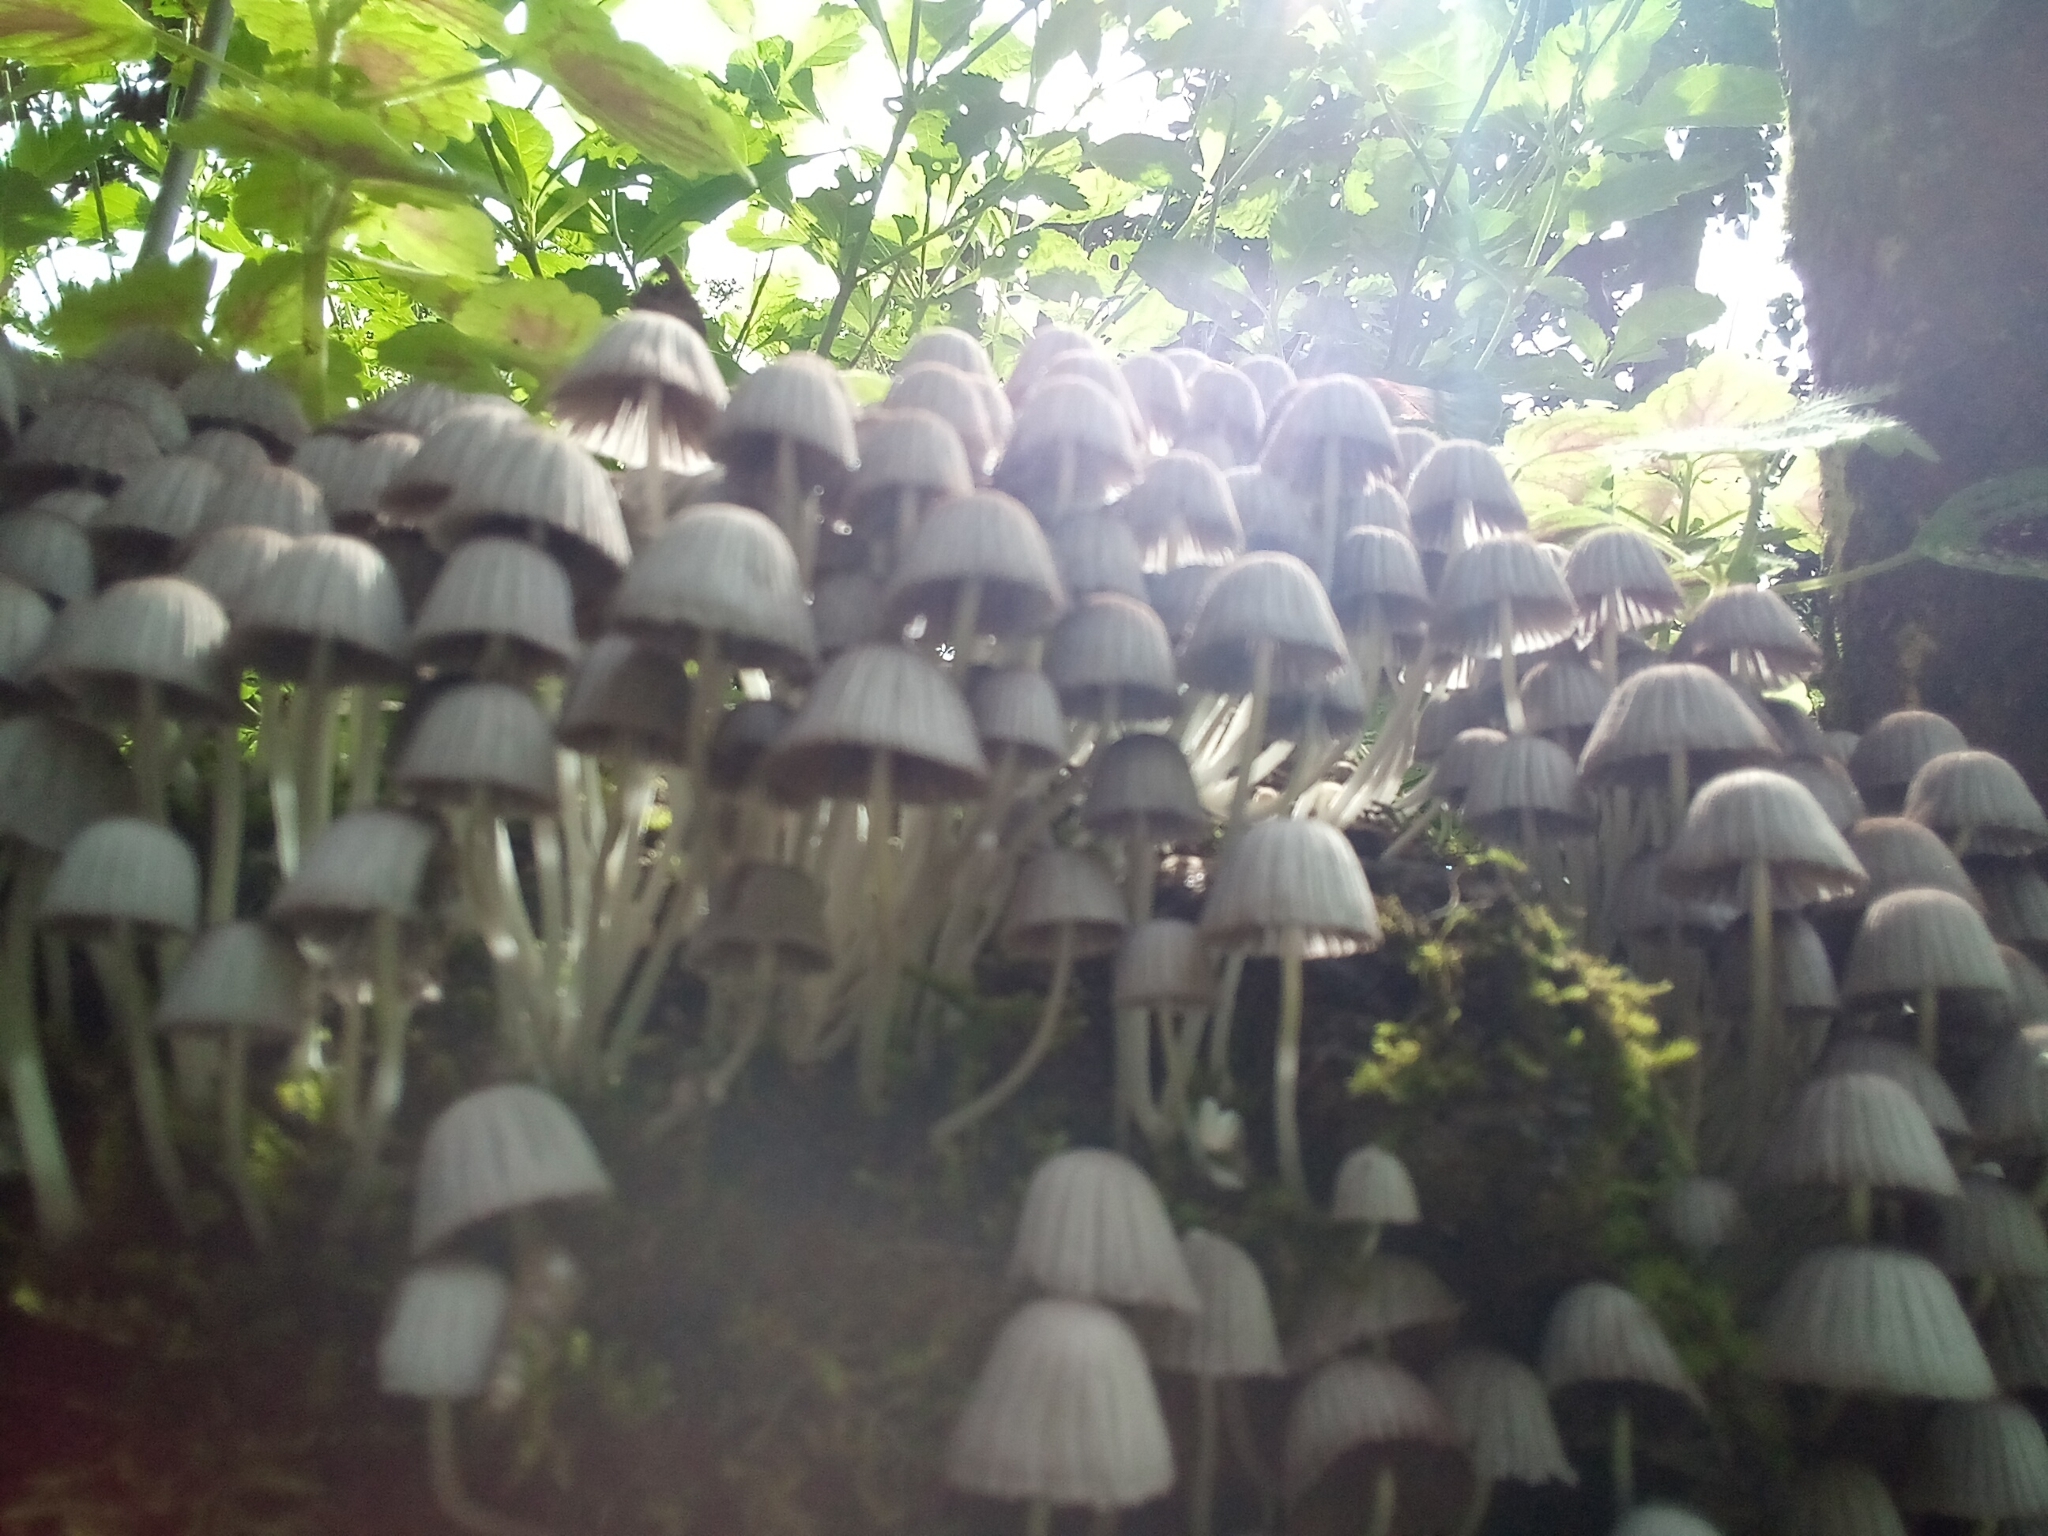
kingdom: Fungi
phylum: Basidiomycota
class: Agaricomycetes
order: Agaricales
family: Psathyrellaceae
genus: Coprinellus
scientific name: Coprinellus disseminatus
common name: Fairies' bonnets
